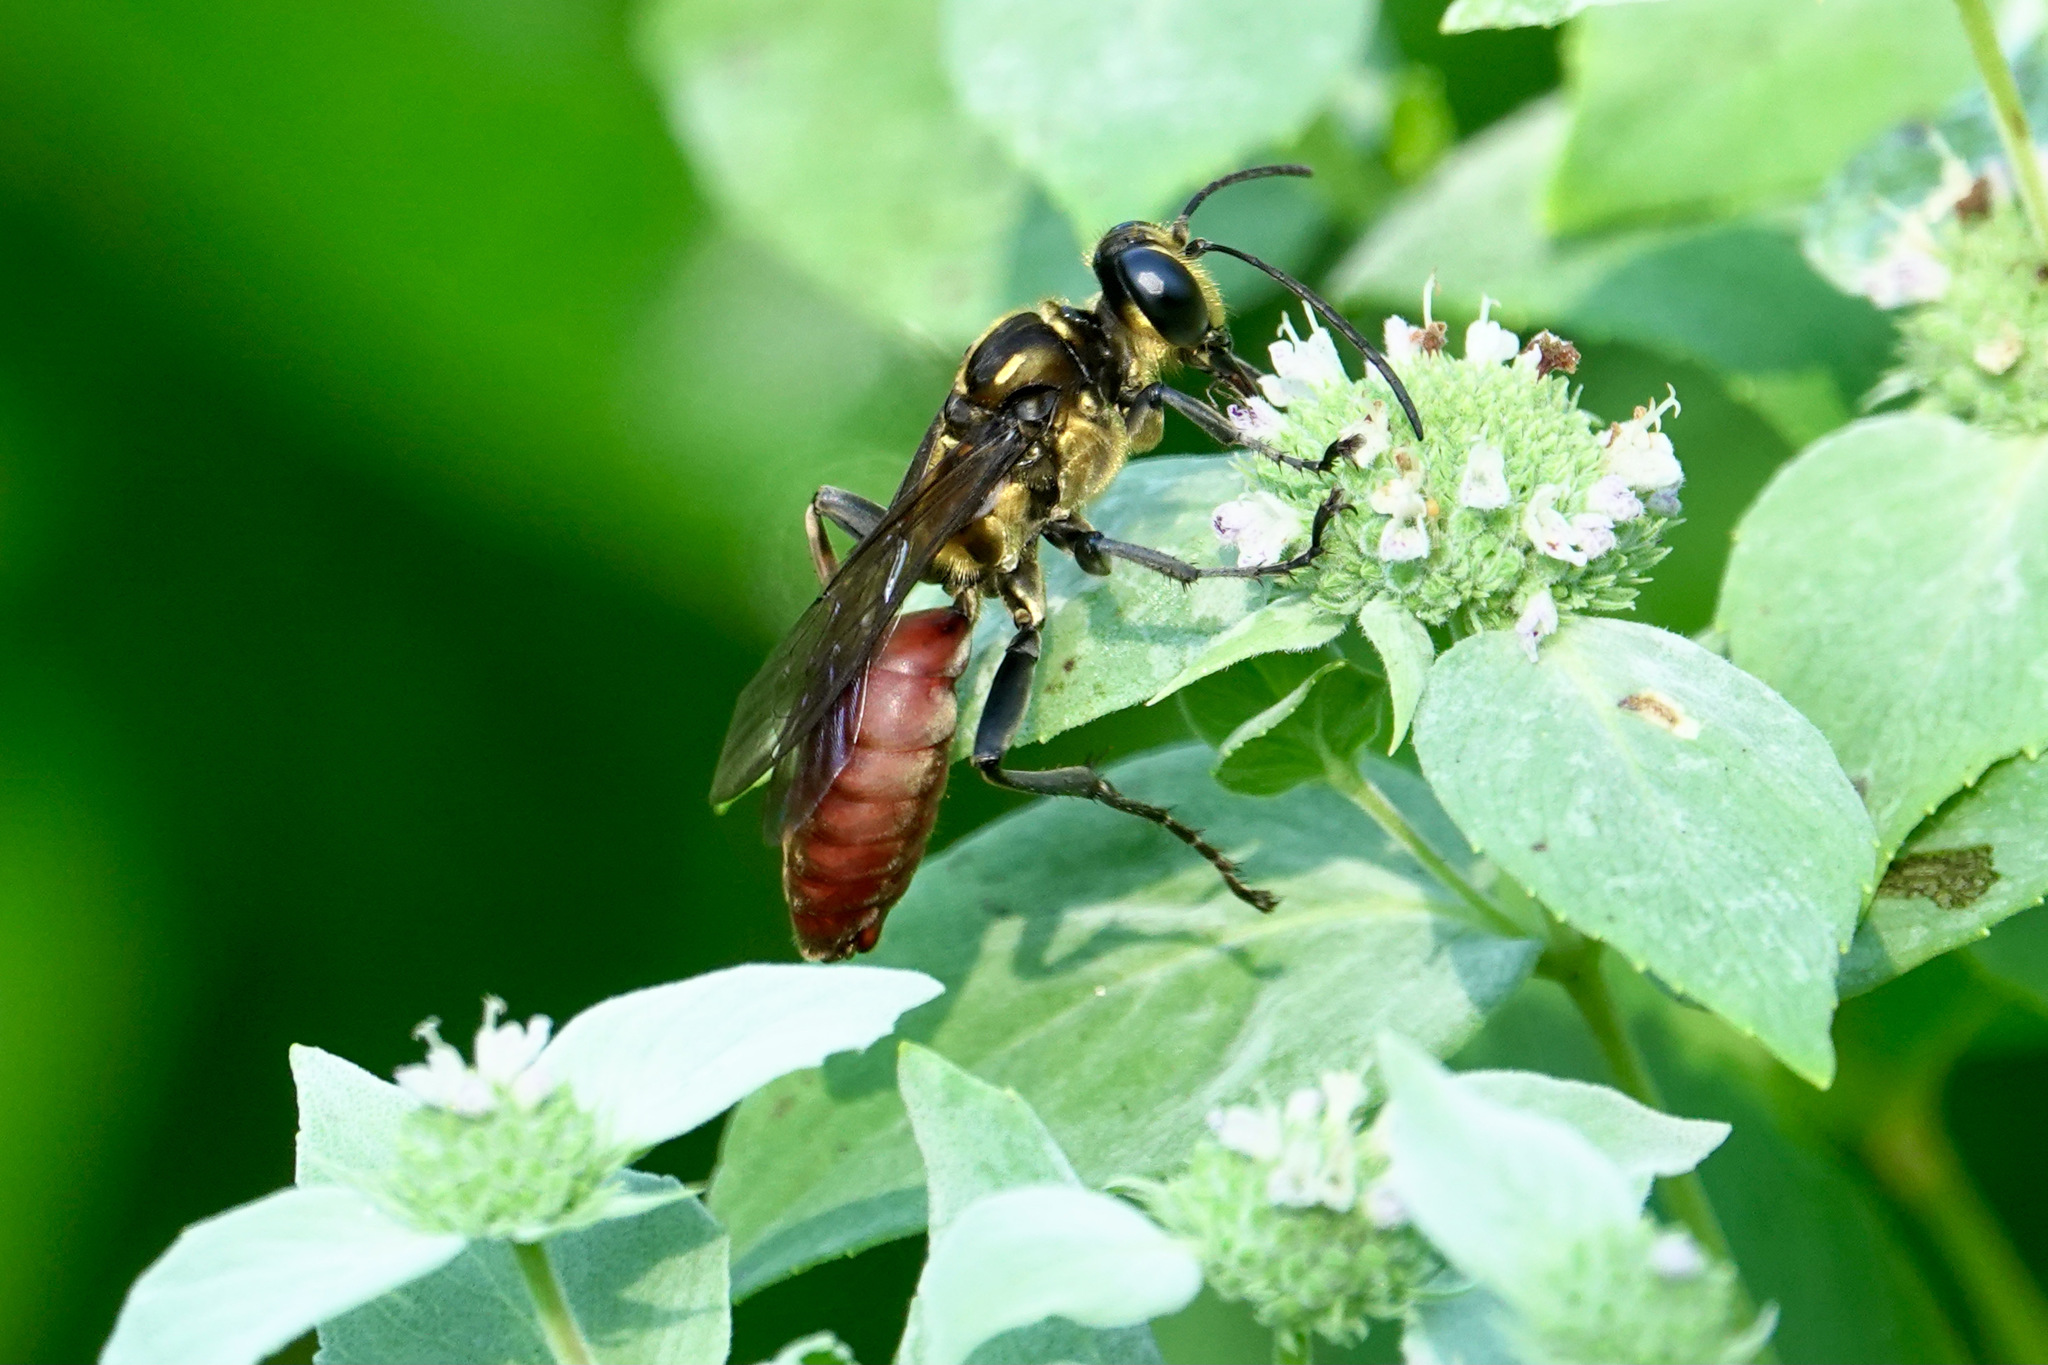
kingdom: Animalia
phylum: Arthropoda
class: Insecta
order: Hymenoptera
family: Sphecidae
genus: Sphex
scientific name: Sphex habenus
